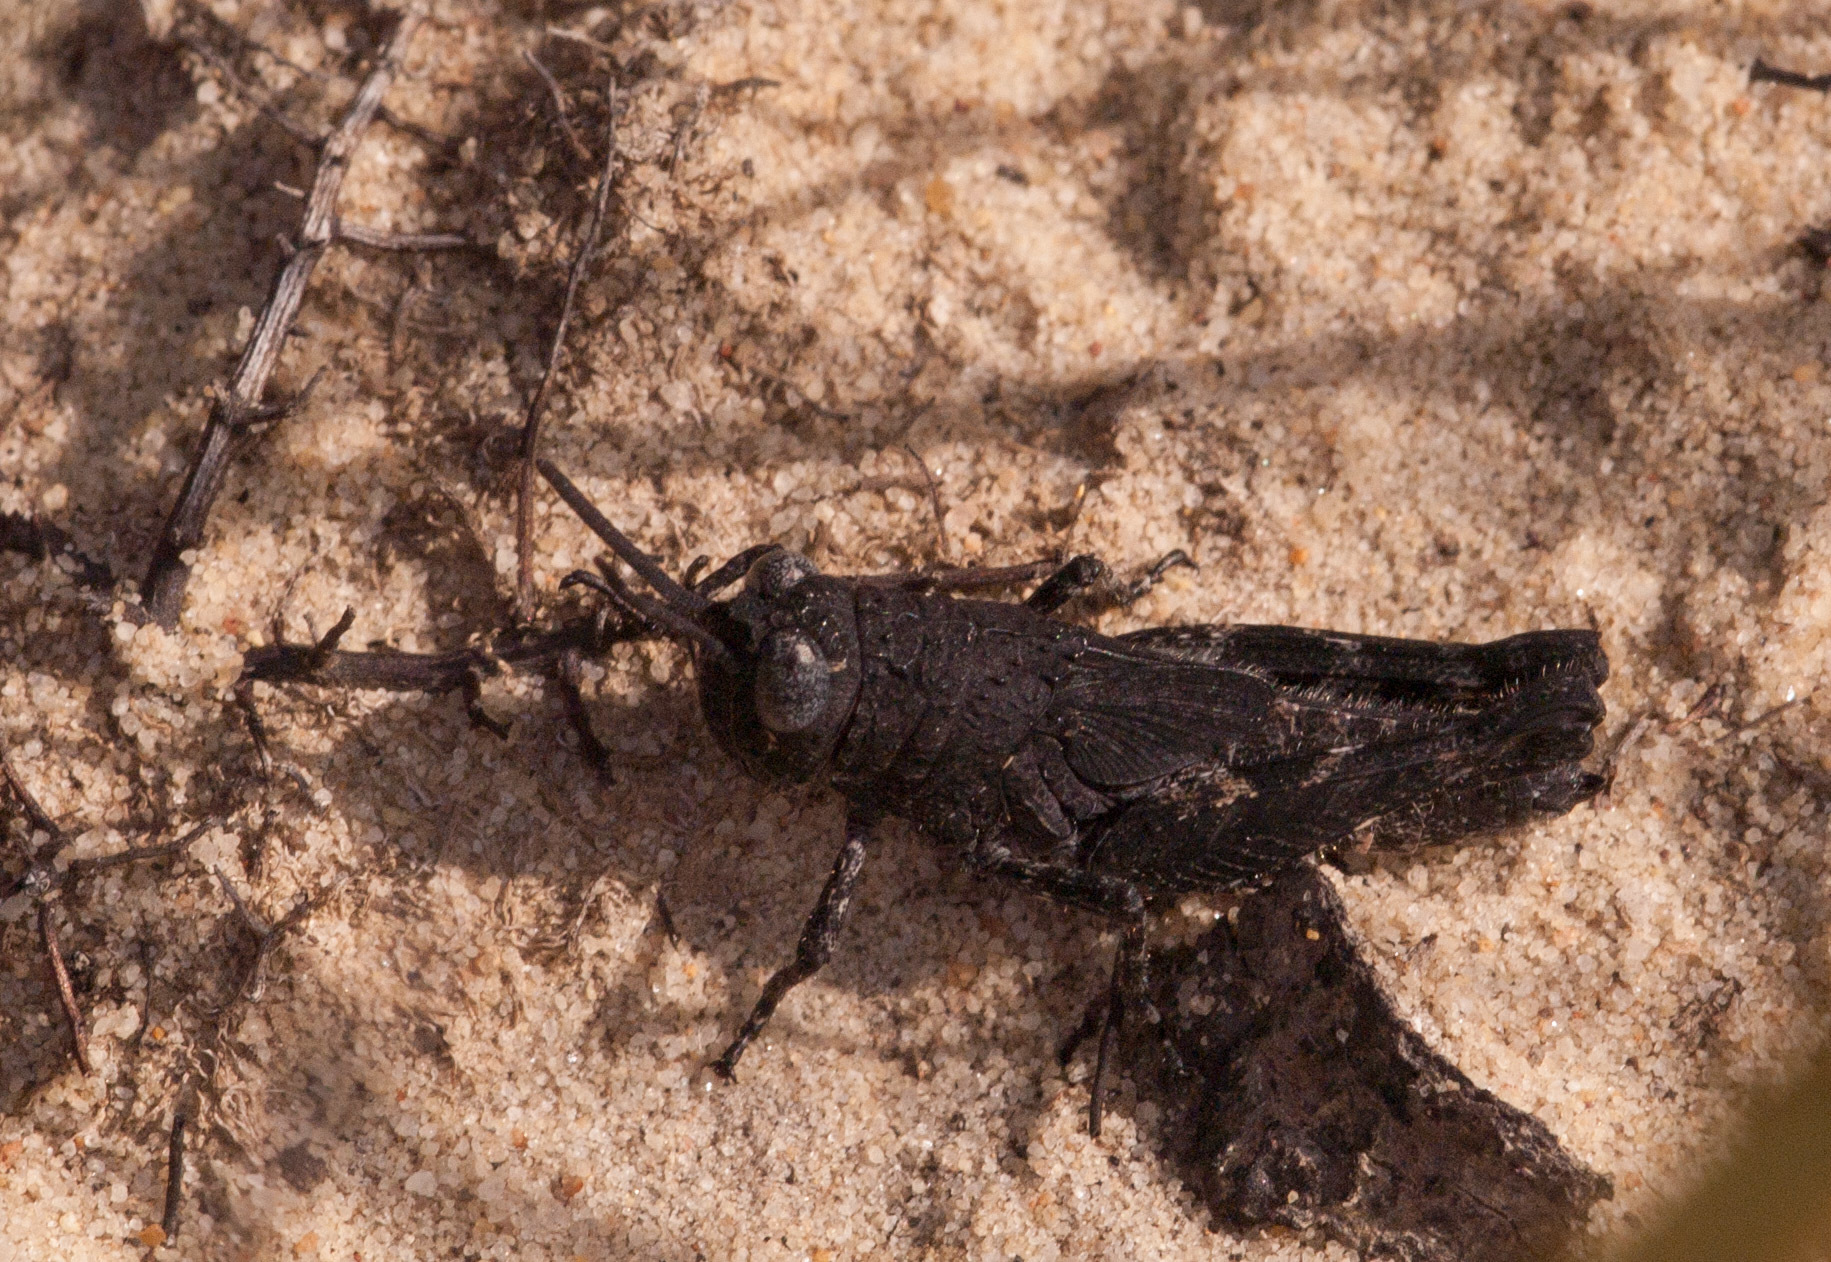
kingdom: Animalia
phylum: Arthropoda
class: Insecta
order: Orthoptera
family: Acrididae
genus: Cirphula
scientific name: Cirphula pyrrhocnemis
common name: Variable cirphula
